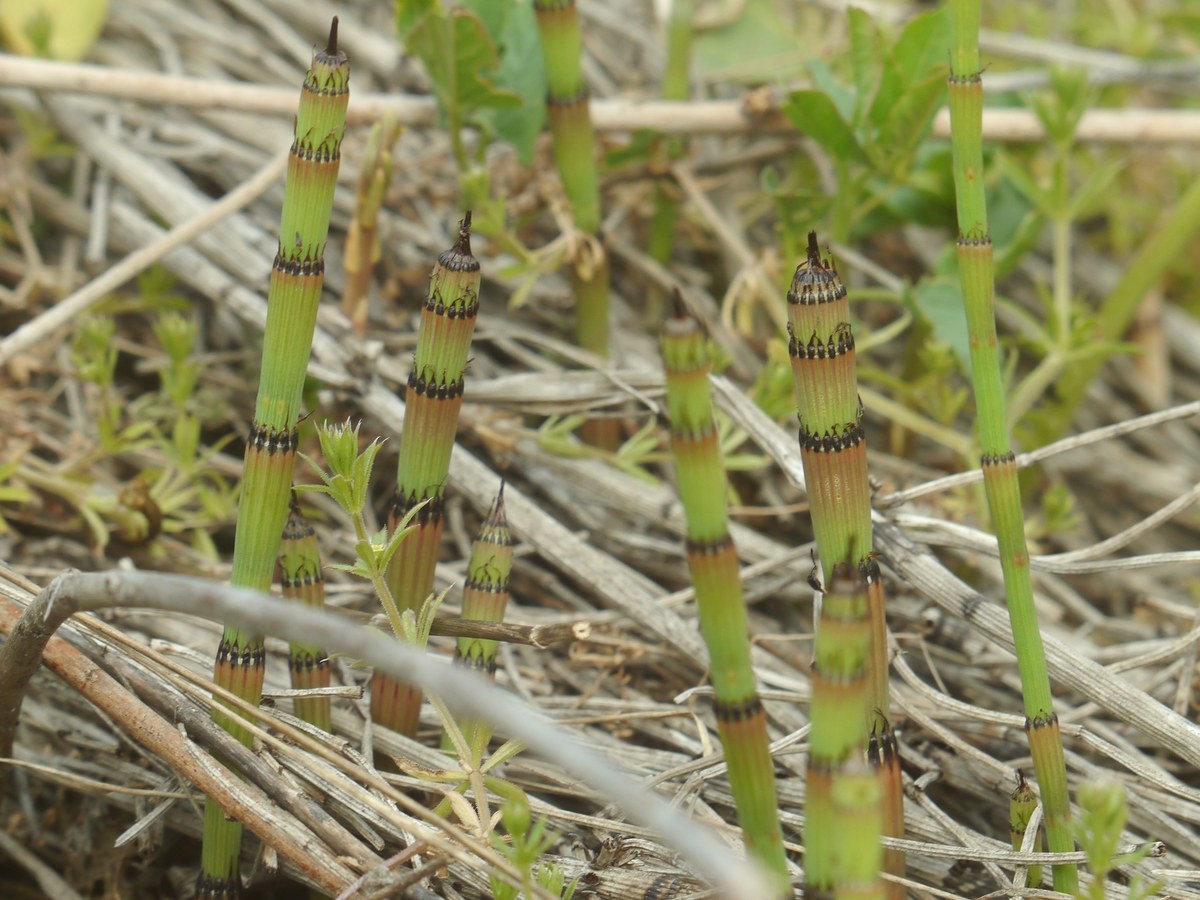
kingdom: Plantae
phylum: Tracheophyta
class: Polypodiopsida
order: Equisetales
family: Equisetaceae
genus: Equisetum
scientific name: Equisetum ramosissimum
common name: Branched horsetail
